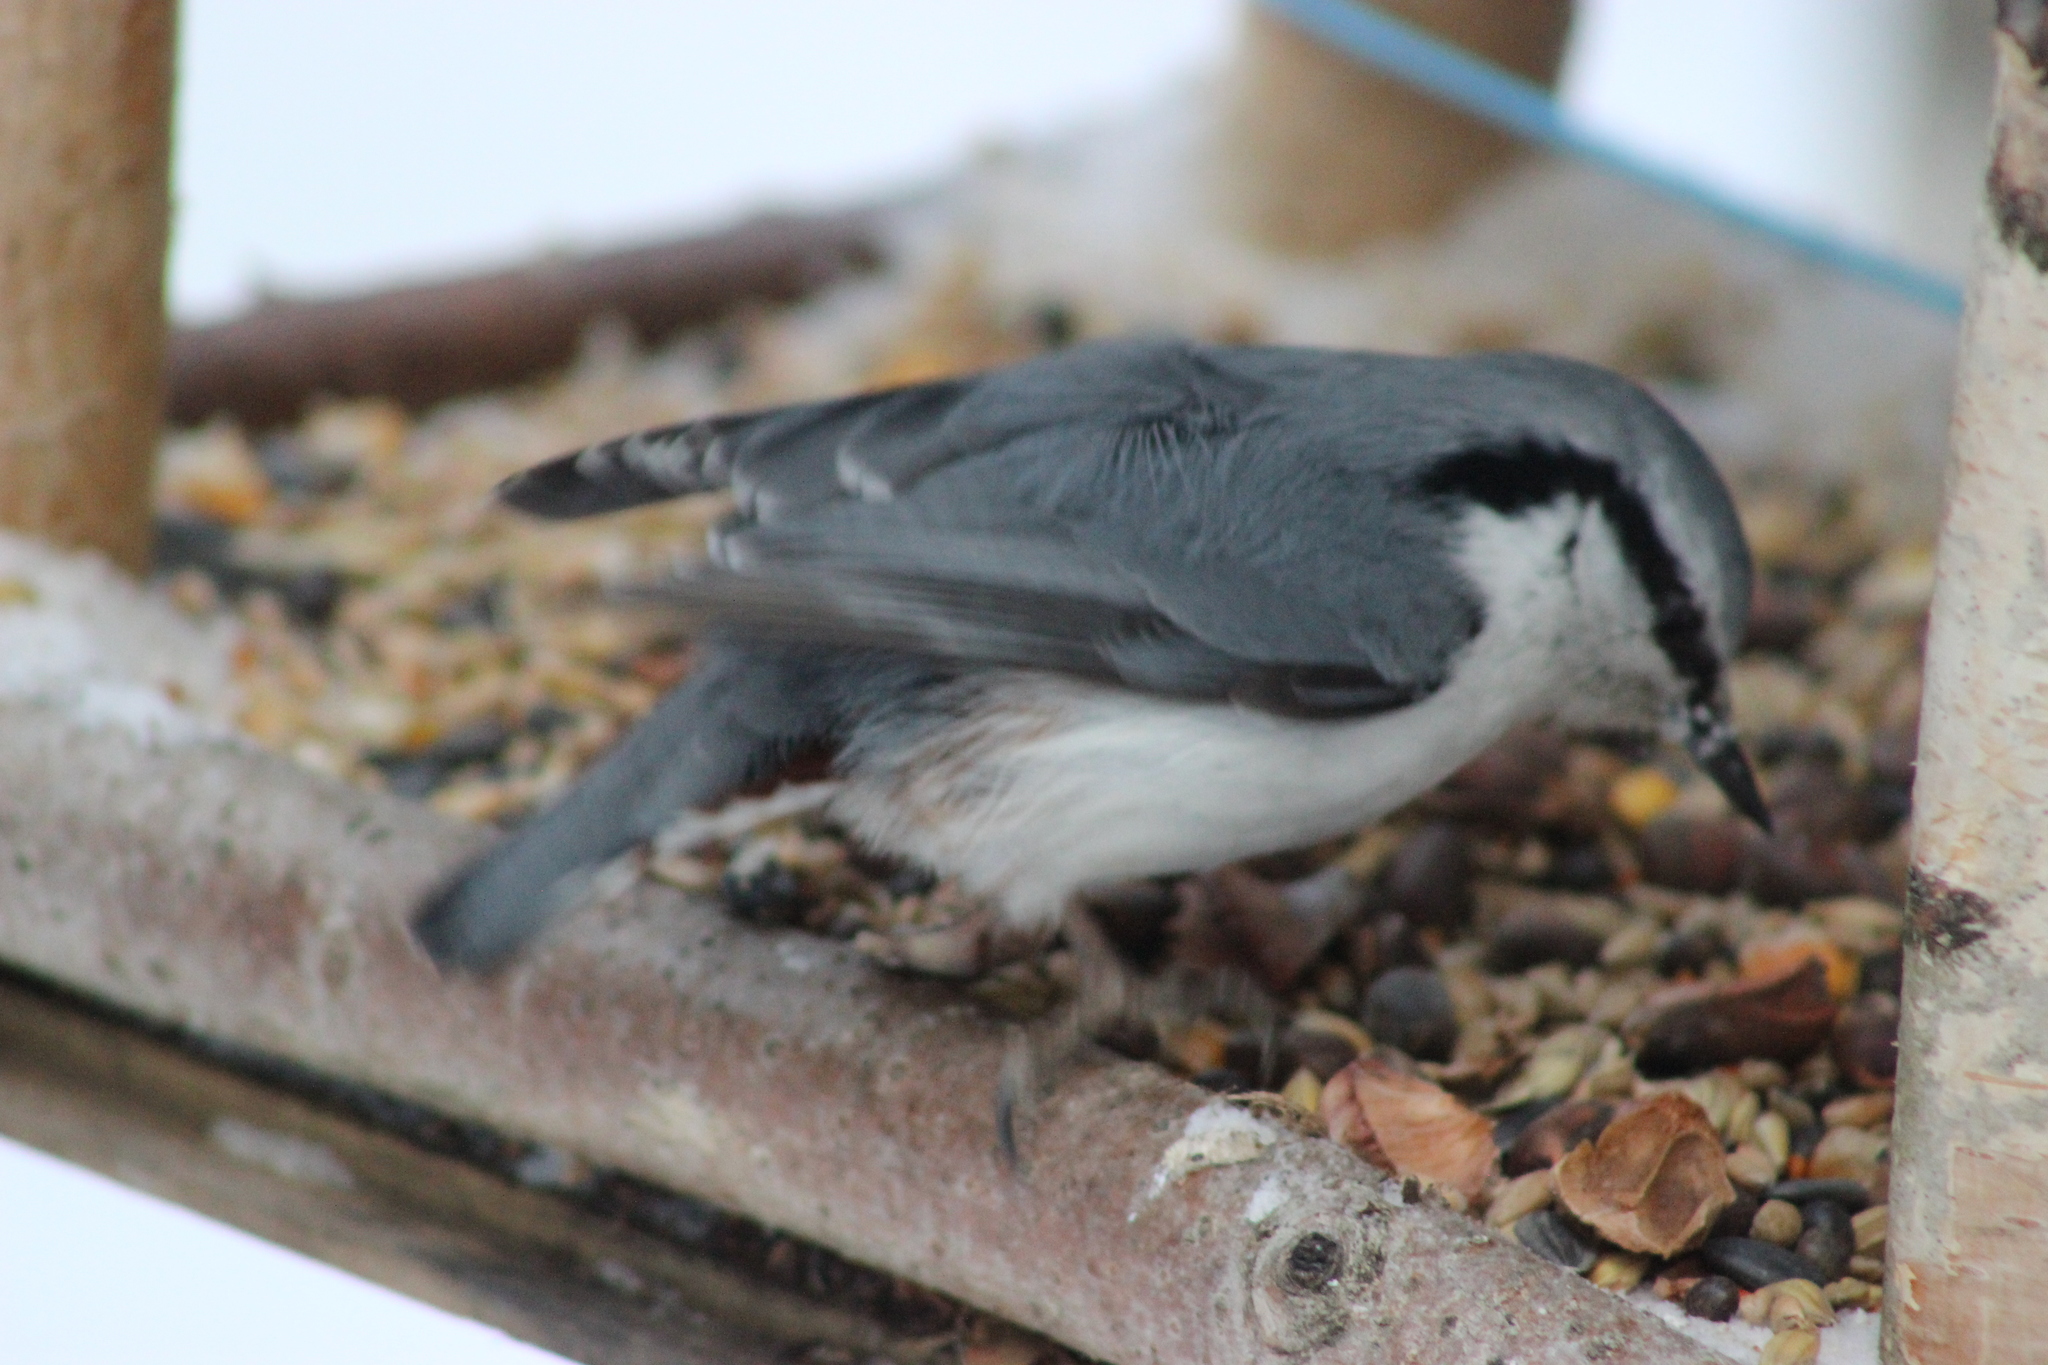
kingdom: Animalia
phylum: Chordata
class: Aves
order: Passeriformes
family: Sittidae
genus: Sitta
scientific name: Sitta europaea
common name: Eurasian nuthatch
